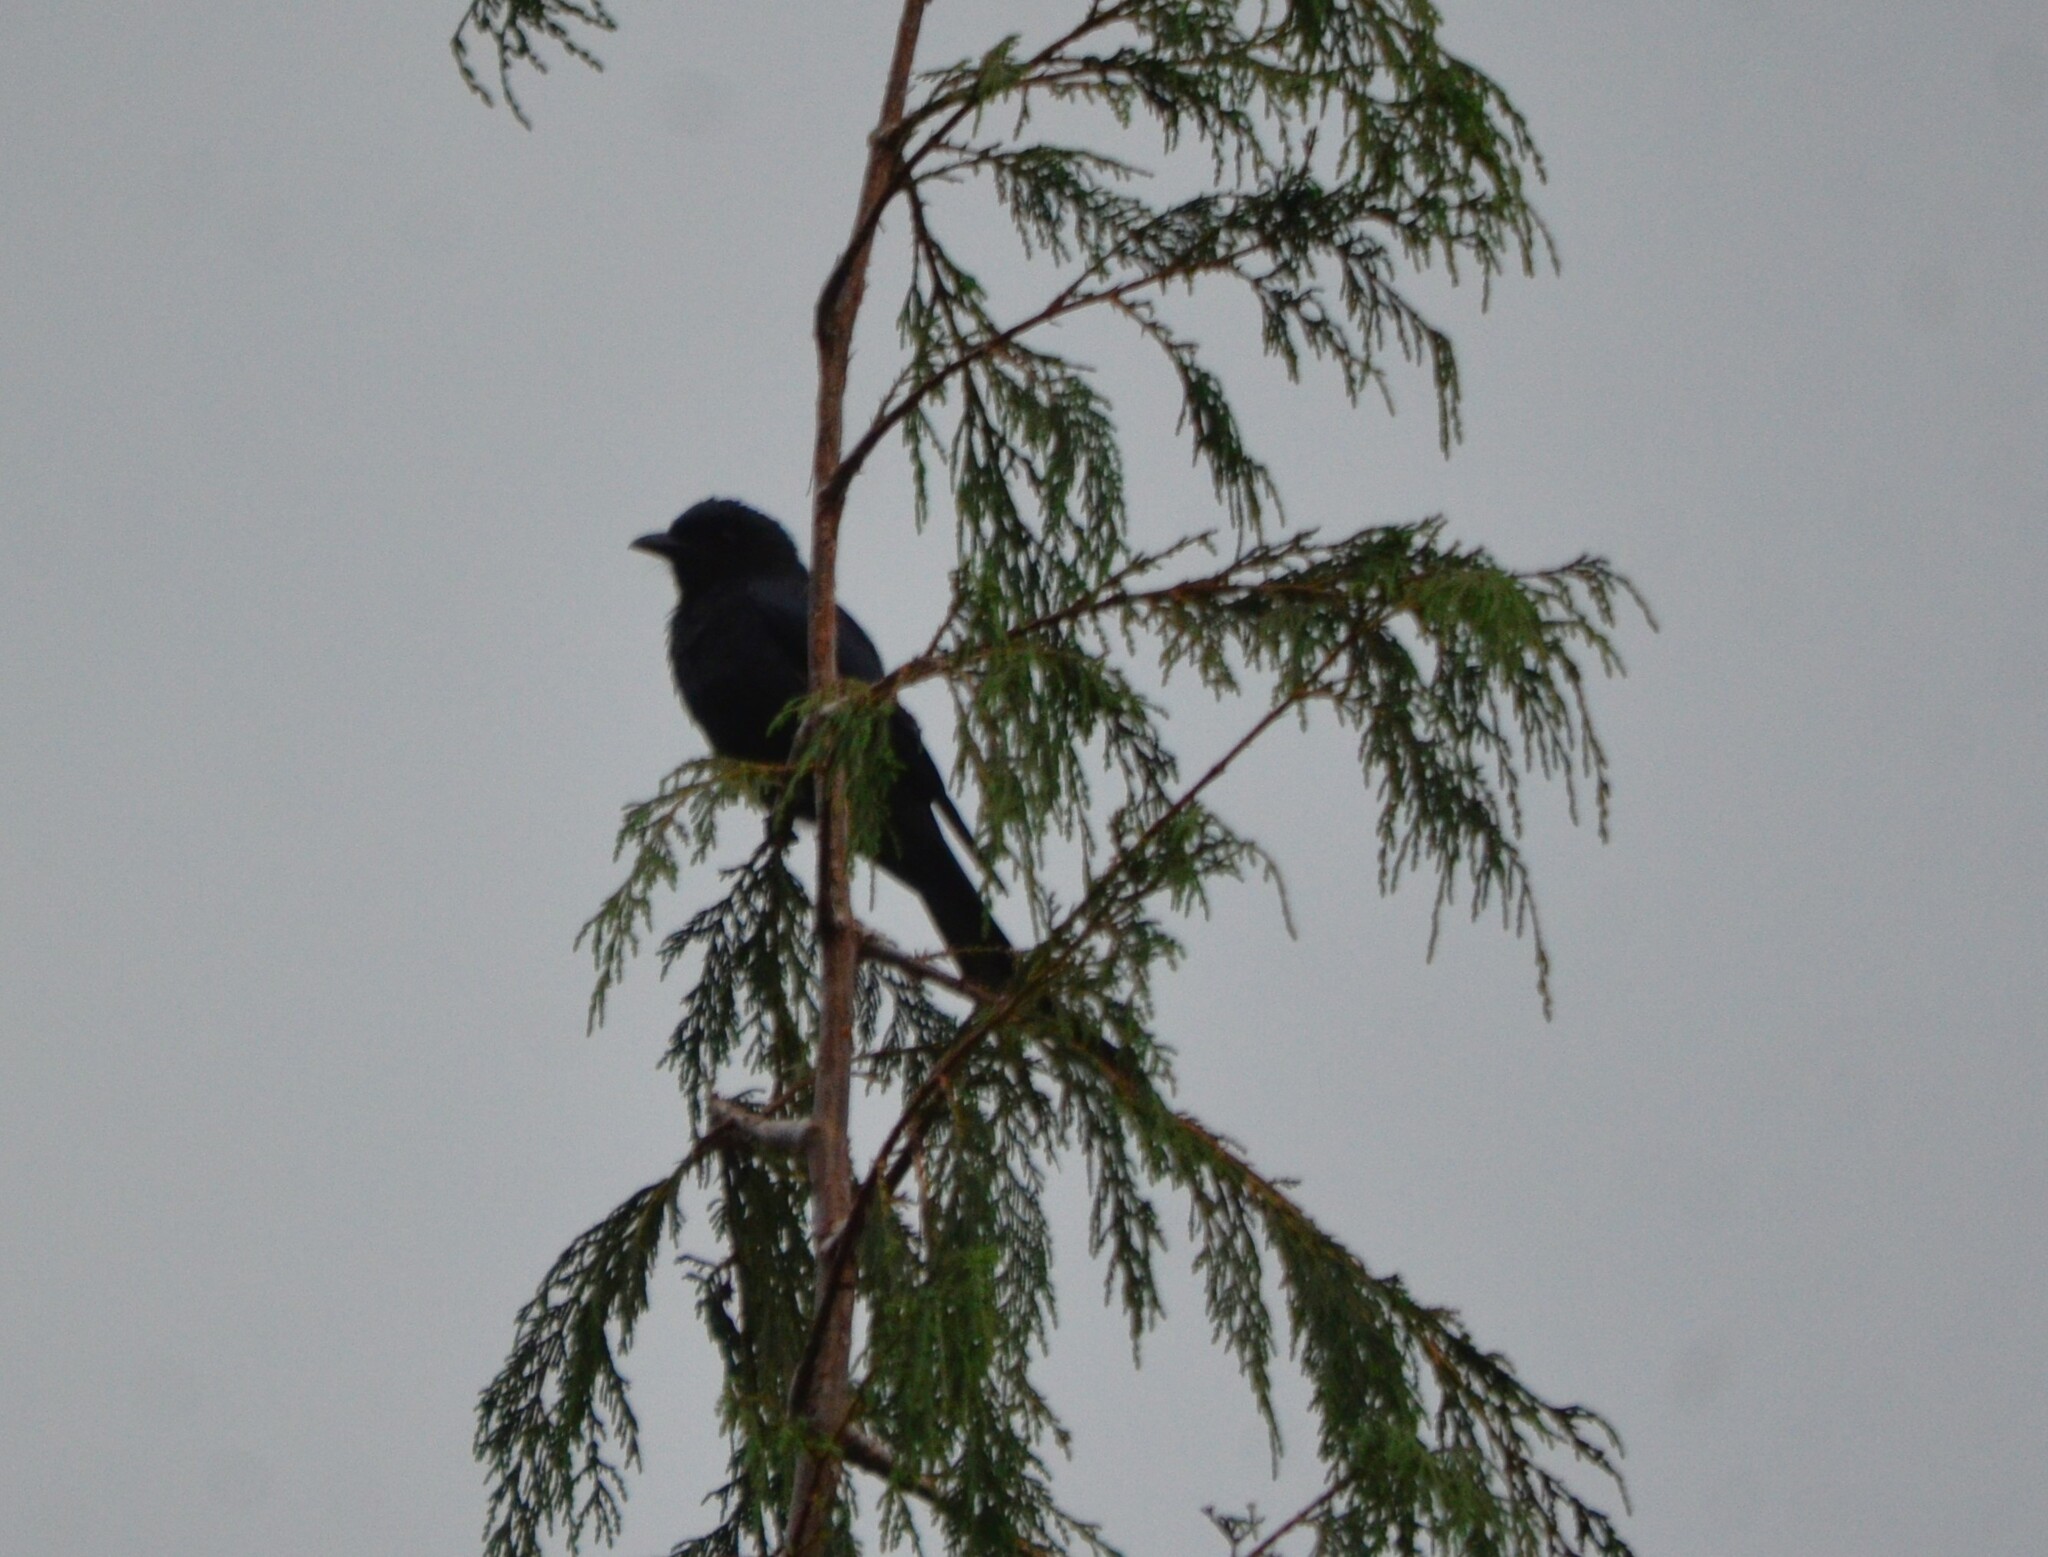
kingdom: Animalia
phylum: Chordata
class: Aves
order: Passeriformes
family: Dicruridae
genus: Dicrurus
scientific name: Dicrurus macrocercus
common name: Black drongo
